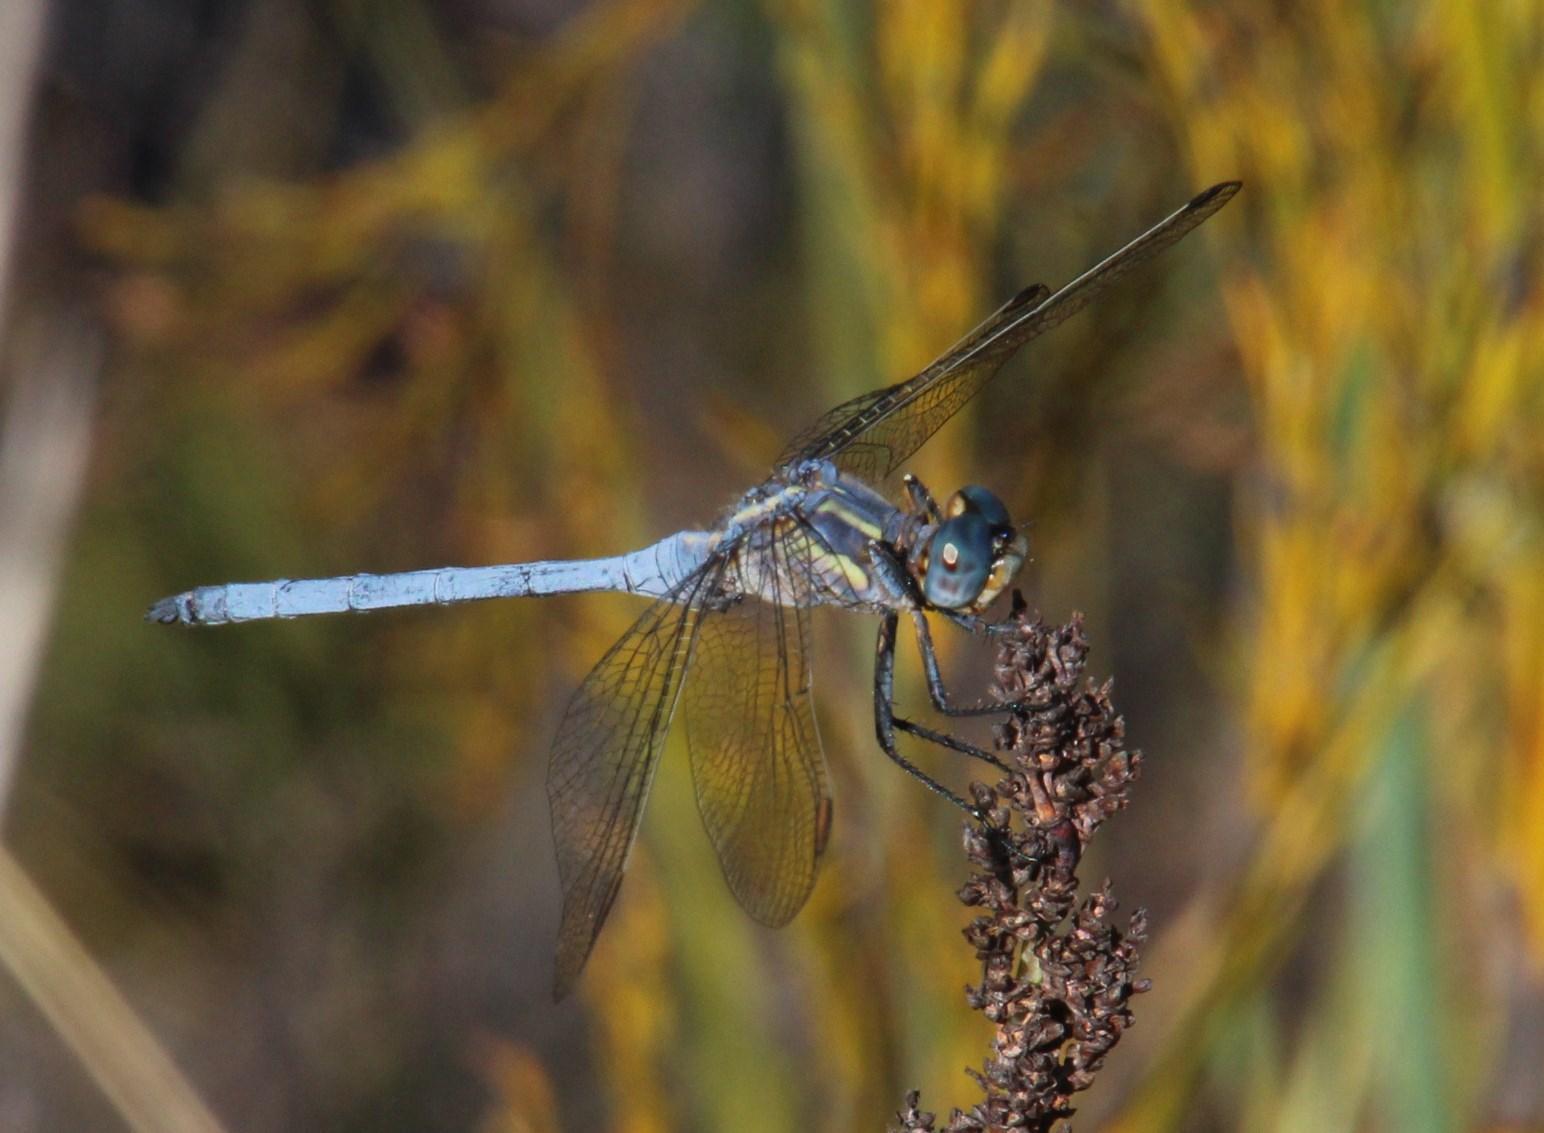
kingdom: Animalia
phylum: Arthropoda
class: Insecta
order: Odonata
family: Libellulidae
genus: Orthetrum
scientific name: Orthetrum machadoi
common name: Highland skimmer
